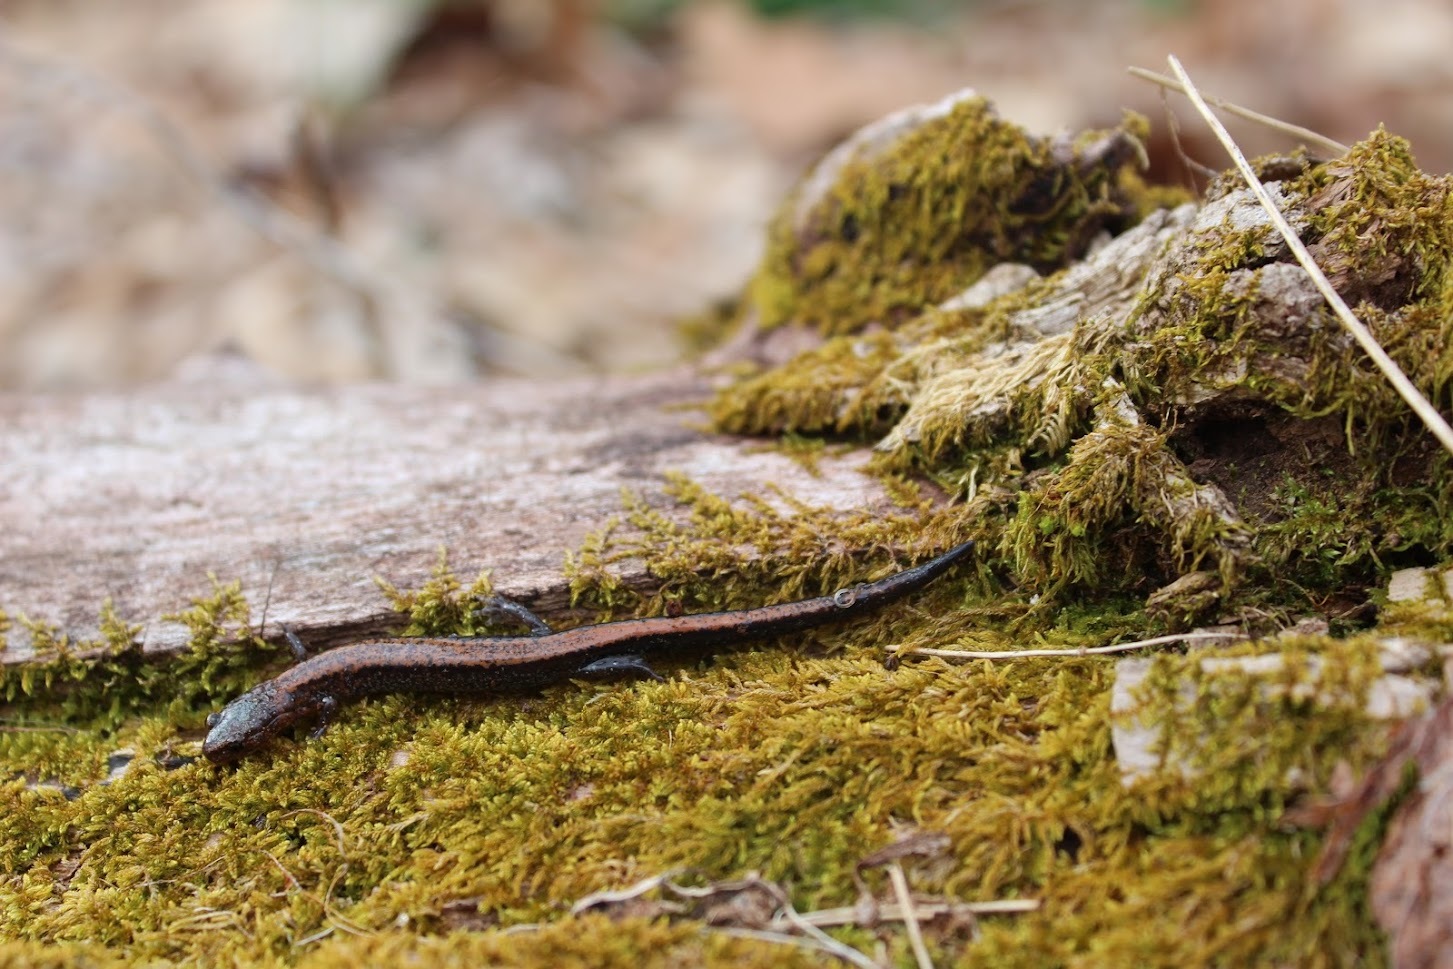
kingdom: Animalia
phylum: Chordata
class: Amphibia
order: Caudata
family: Plethodontidae
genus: Plethodon
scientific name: Plethodon cinereus
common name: Redback salamander
